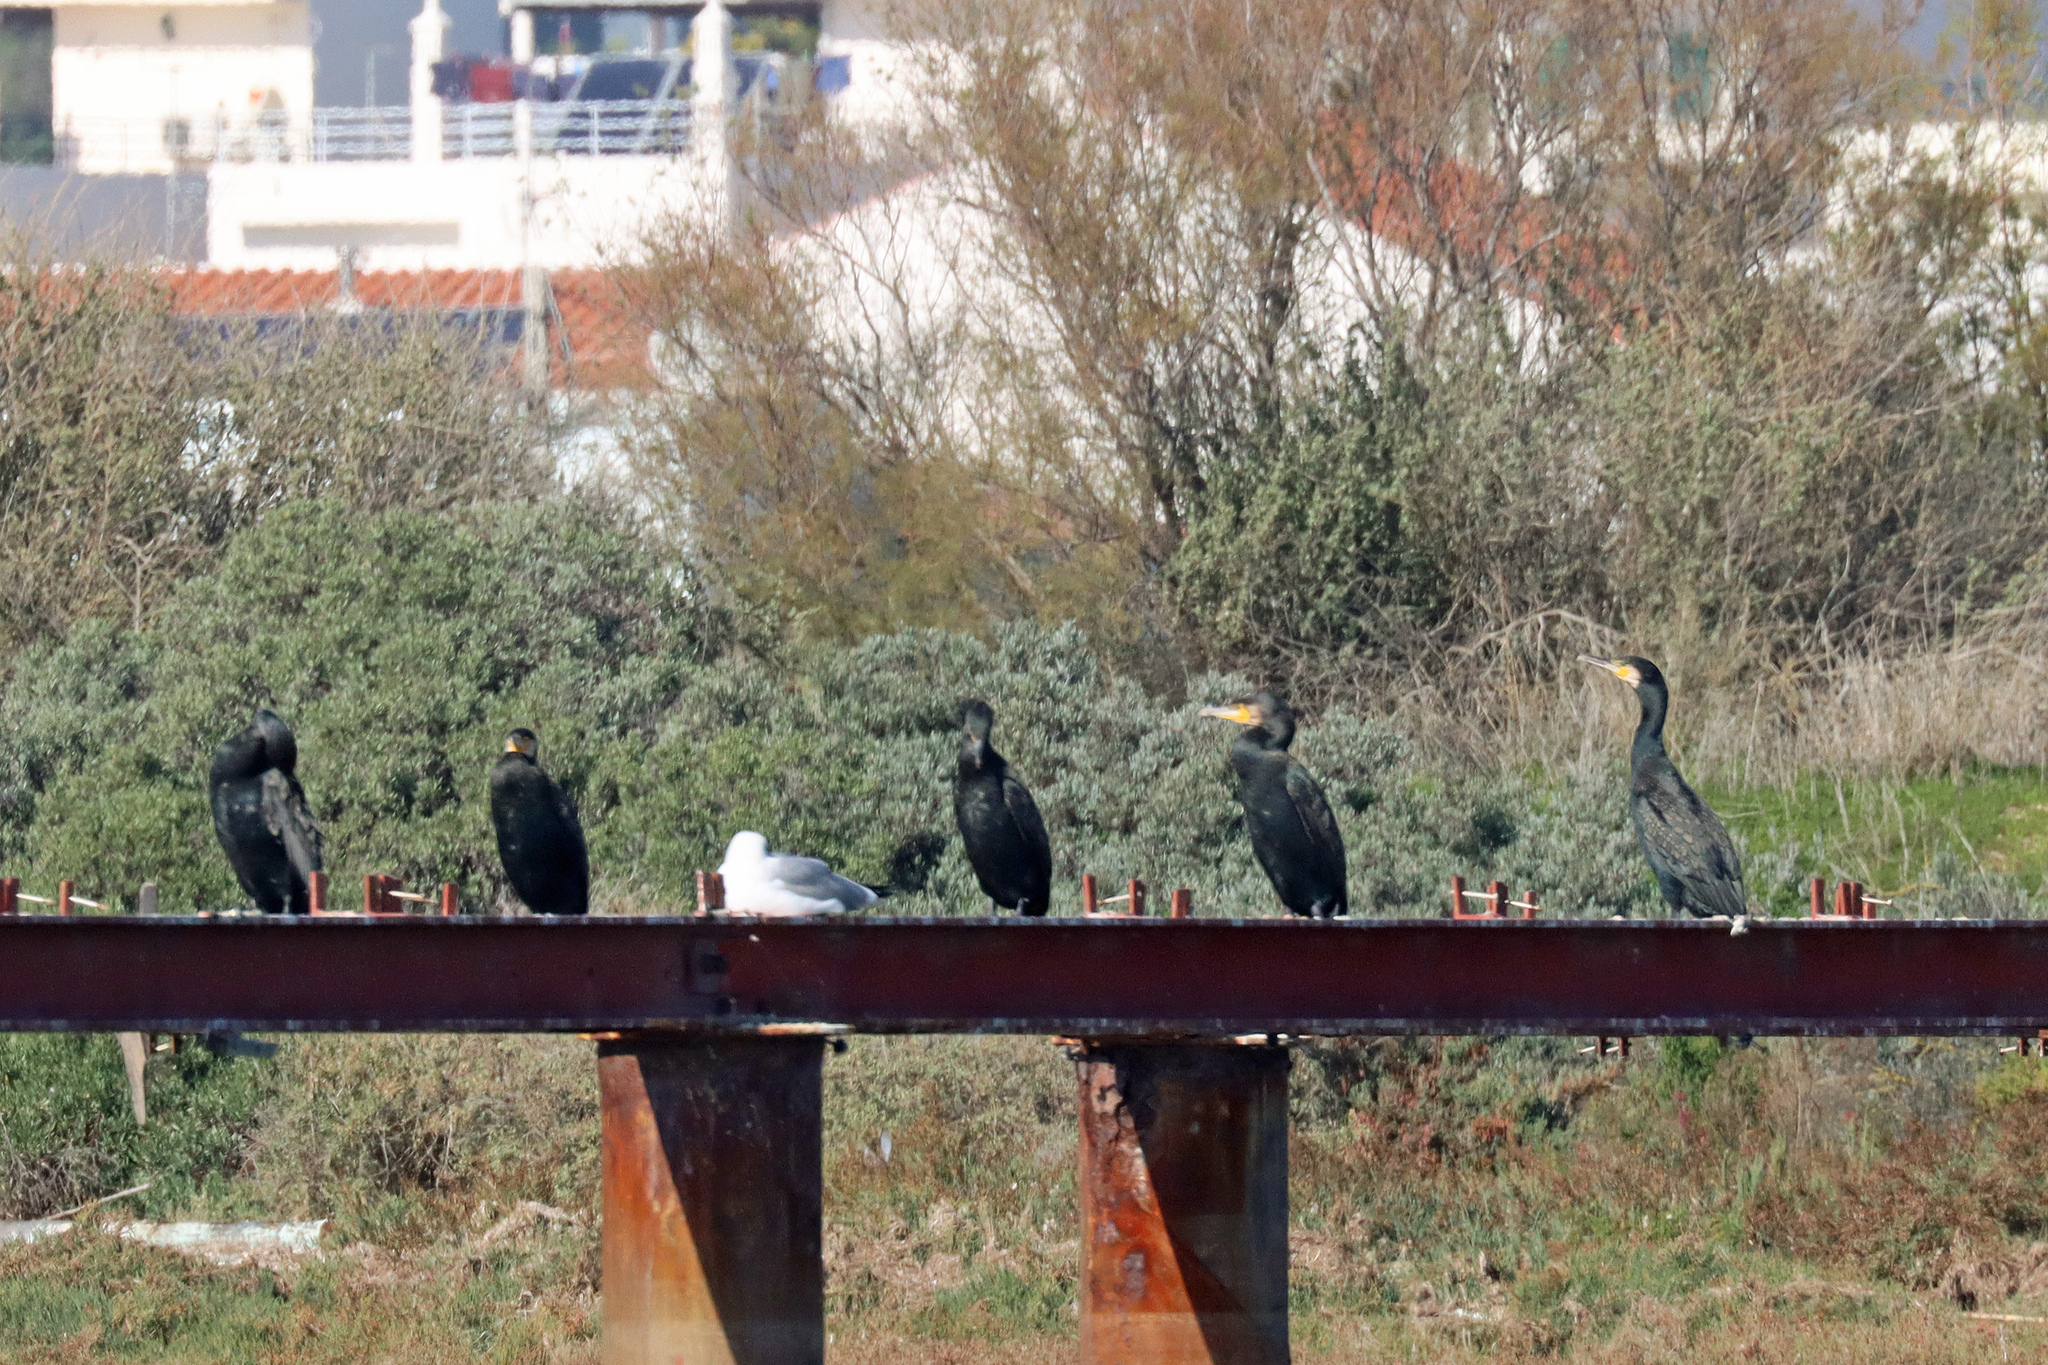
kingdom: Animalia
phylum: Chordata
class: Aves
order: Suliformes
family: Phalacrocoracidae
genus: Phalacrocorax
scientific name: Phalacrocorax carbo
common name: Great cormorant
